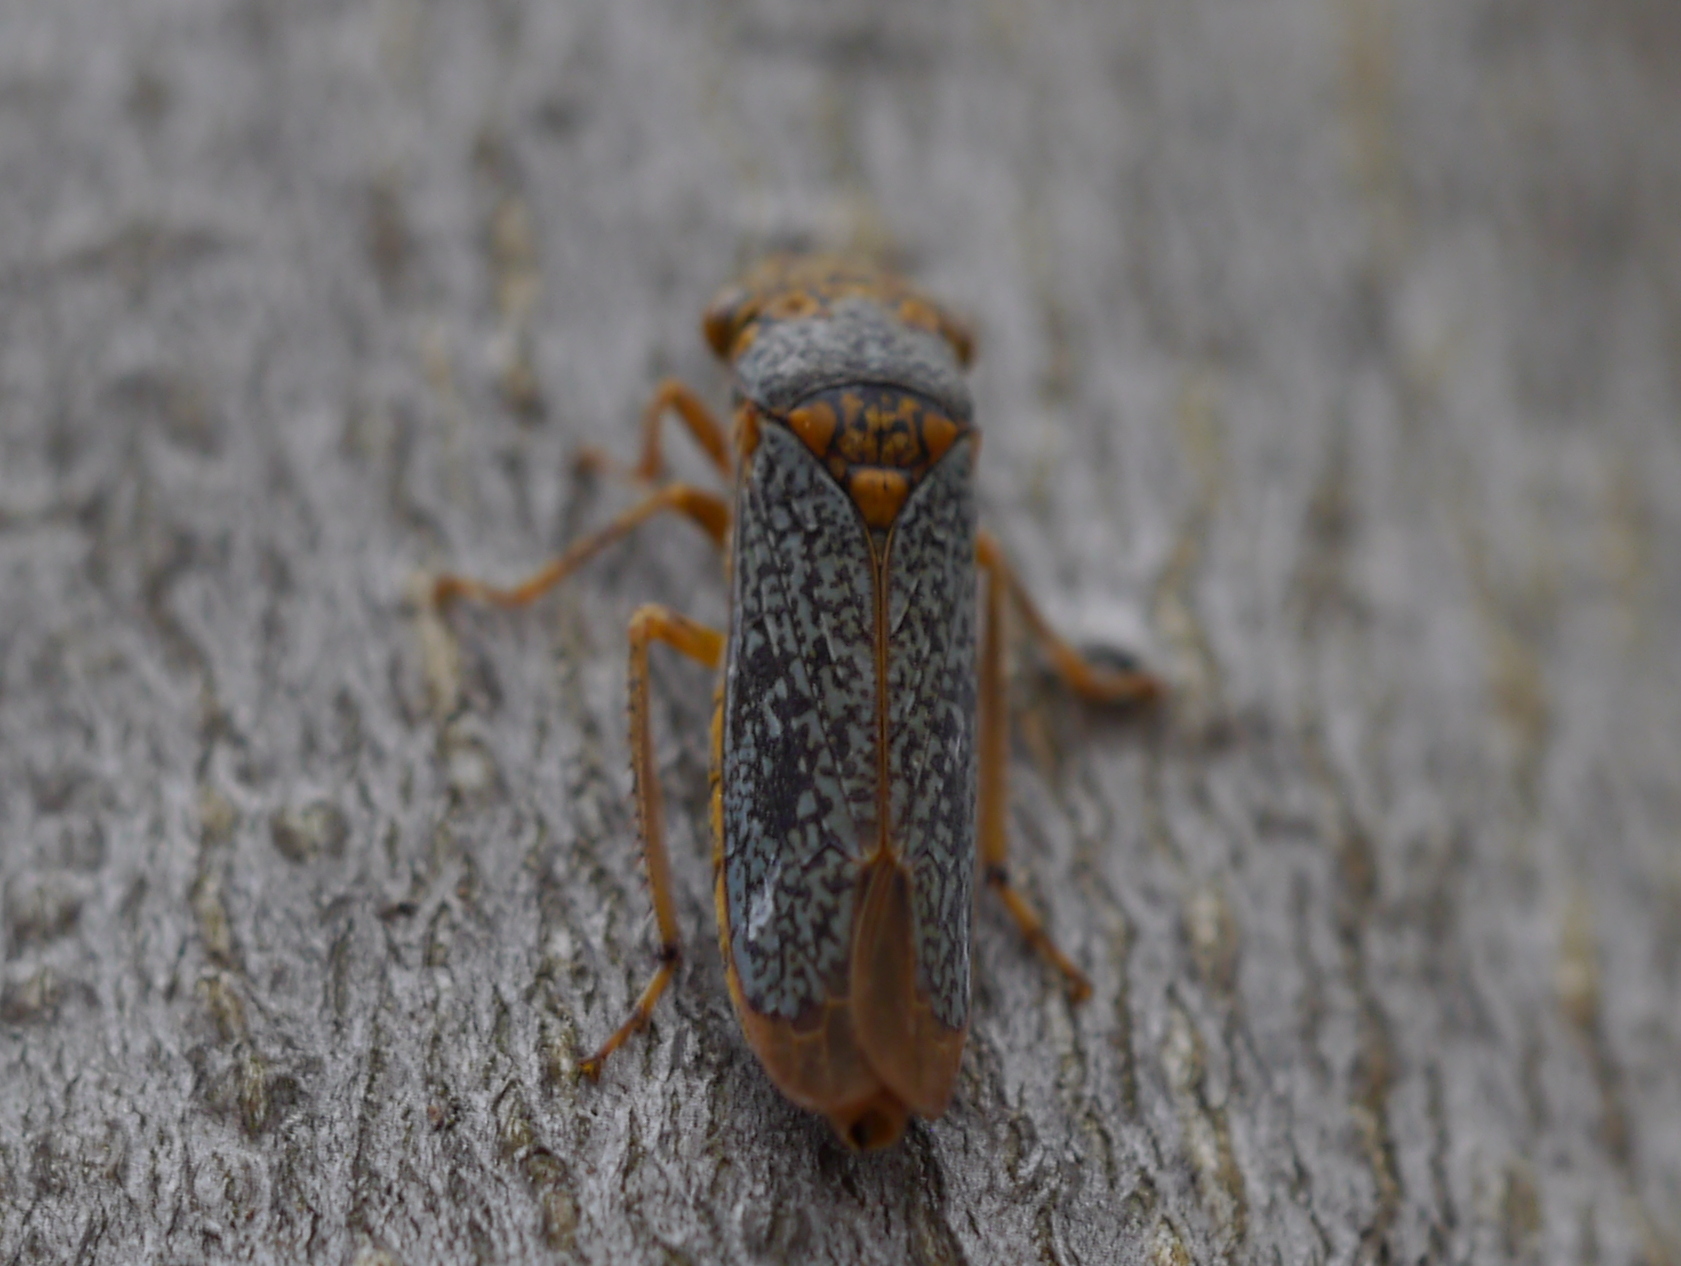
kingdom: Animalia
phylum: Arthropoda
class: Insecta
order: Hemiptera
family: Cicadellidae
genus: Oncometopia
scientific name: Oncometopia orbona
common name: Broad-headed sharpshooter
